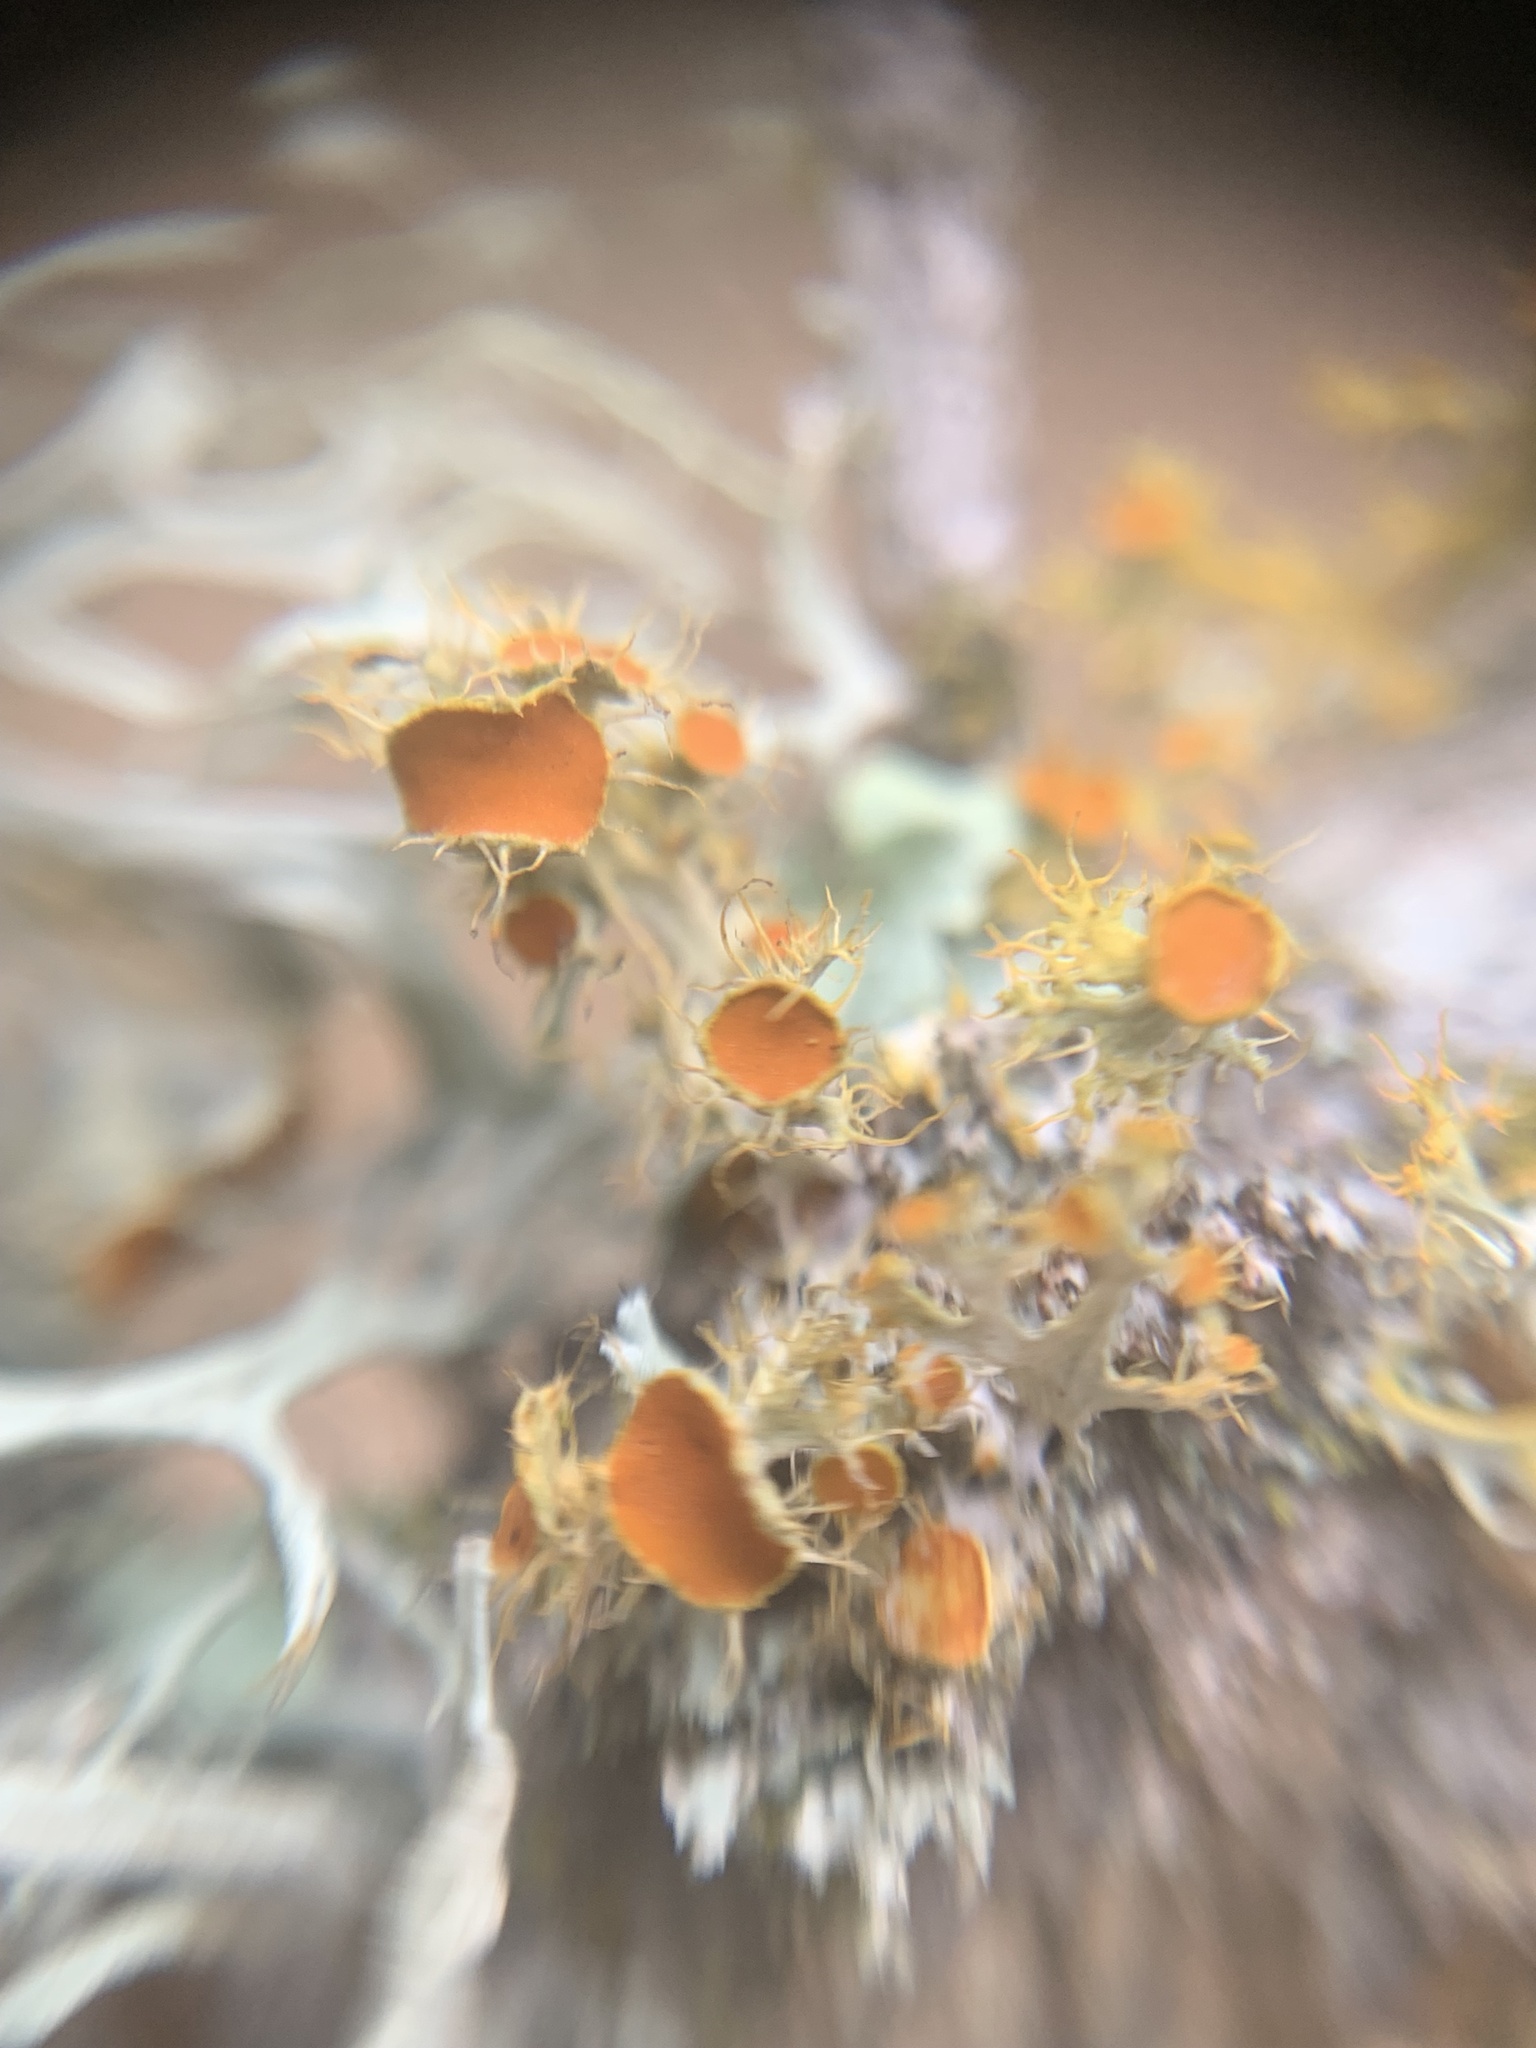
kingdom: Fungi
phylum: Ascomycota
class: Lecanoromycetes
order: Teloschistales
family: Teloschistaceae
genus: Niorma
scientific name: Niorma chrysophthalma
